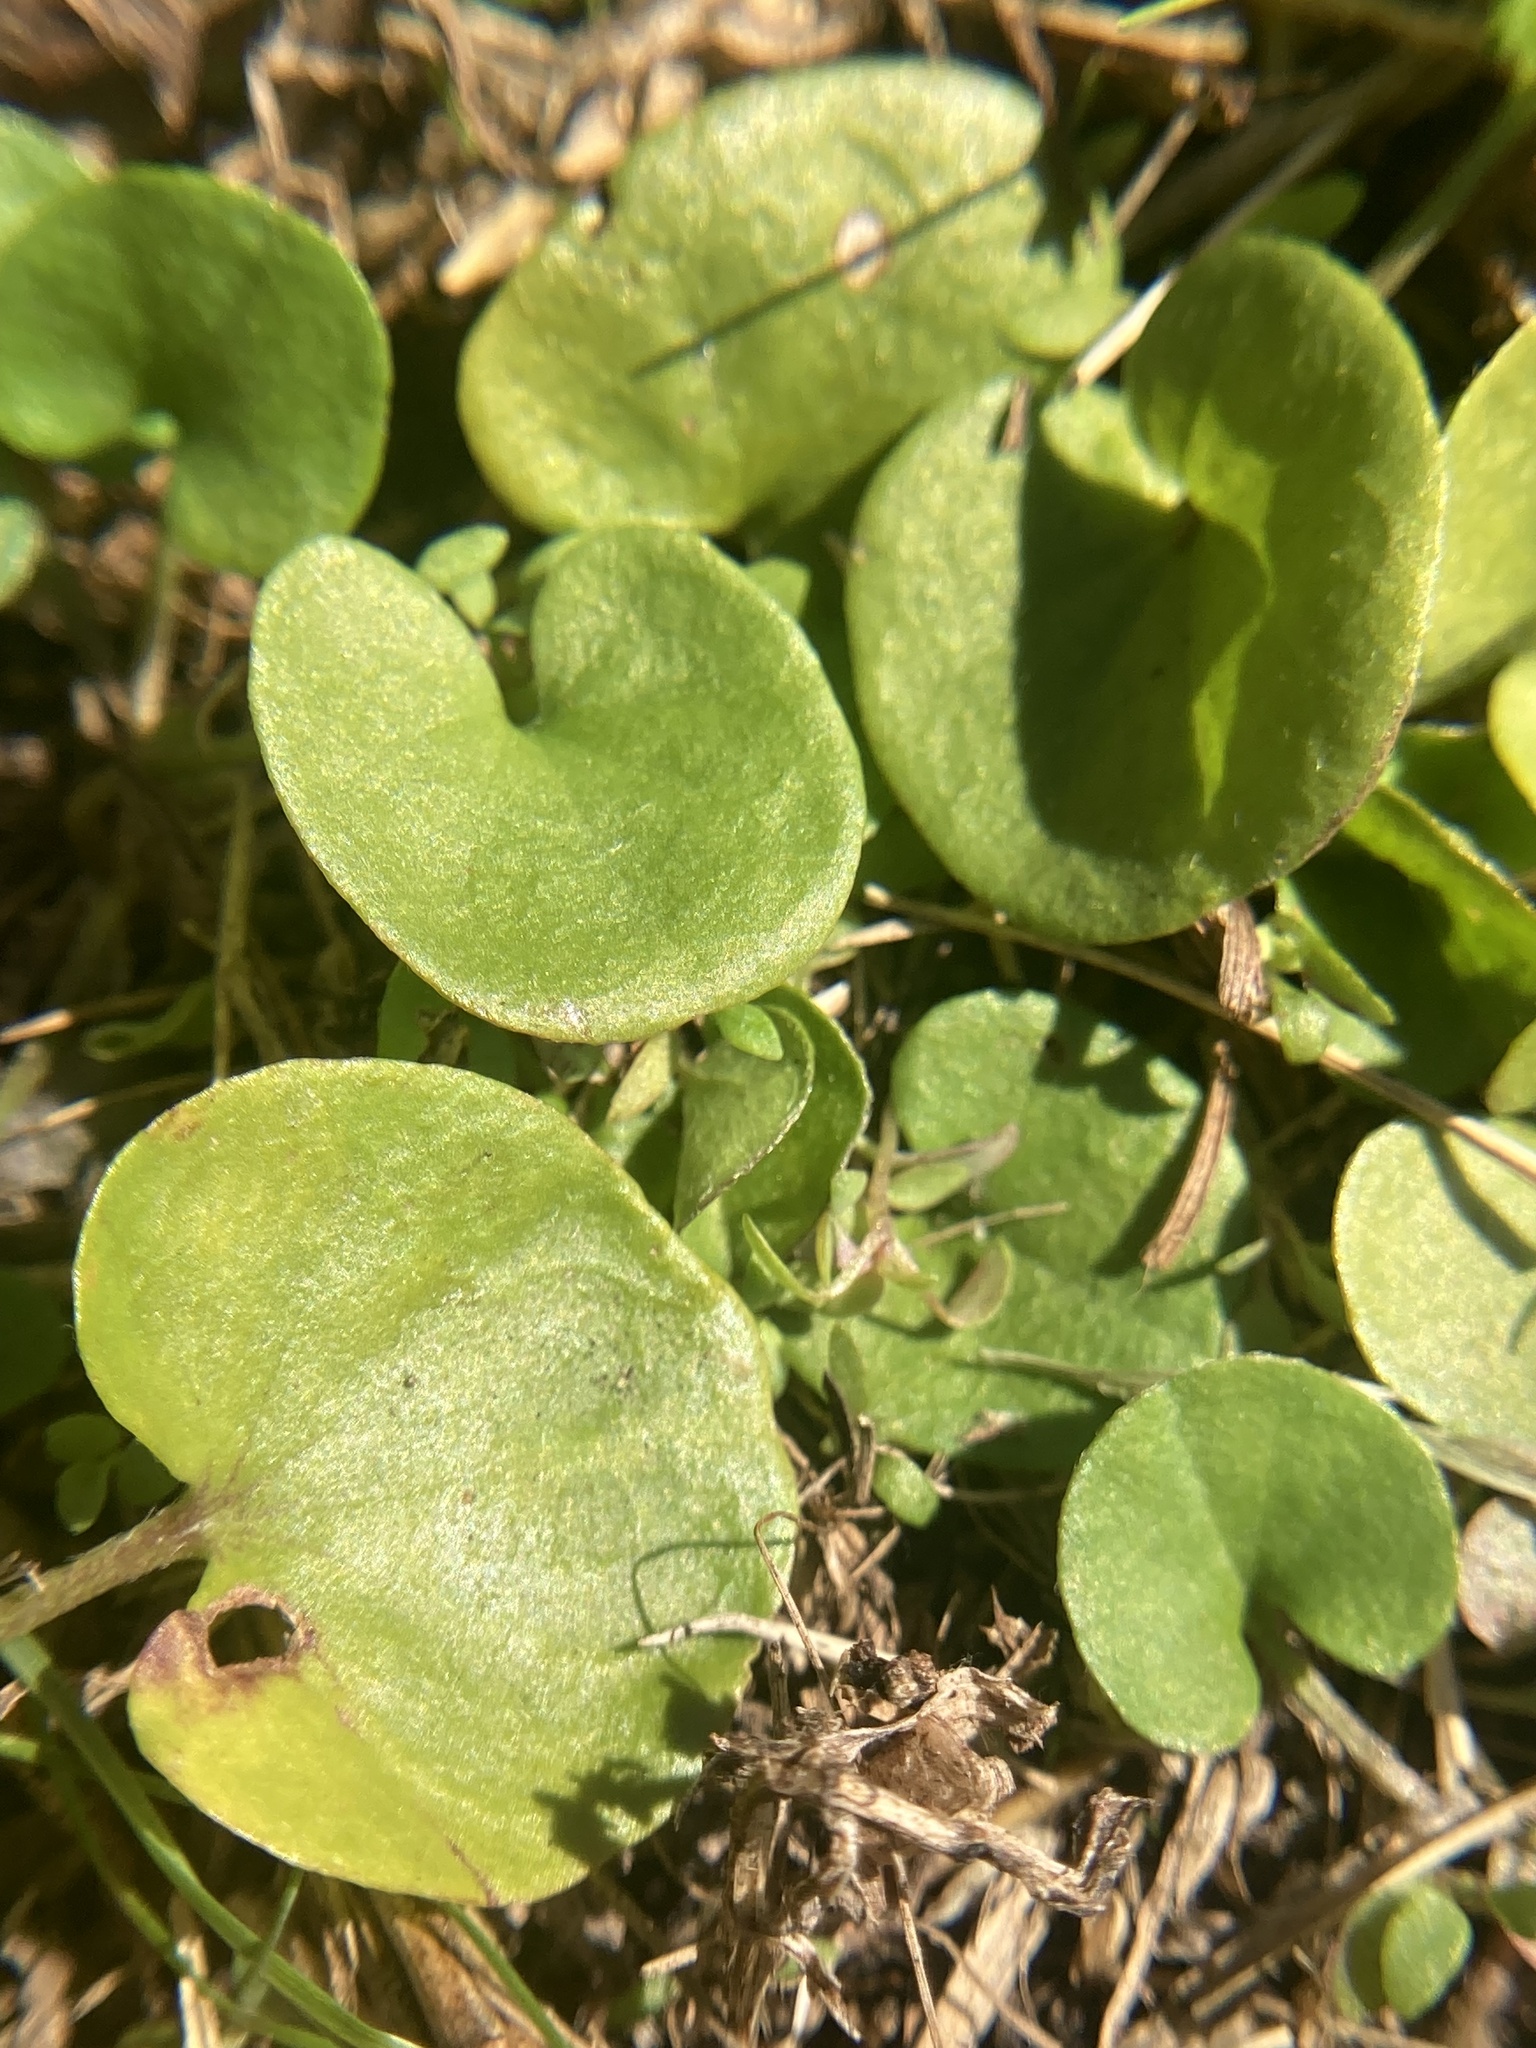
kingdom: Plantae
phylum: Tracheophyta
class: Magnoliopsida
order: Solanales
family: Convolvulaceae
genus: Dichondra
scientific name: Dichondra carolinensis
